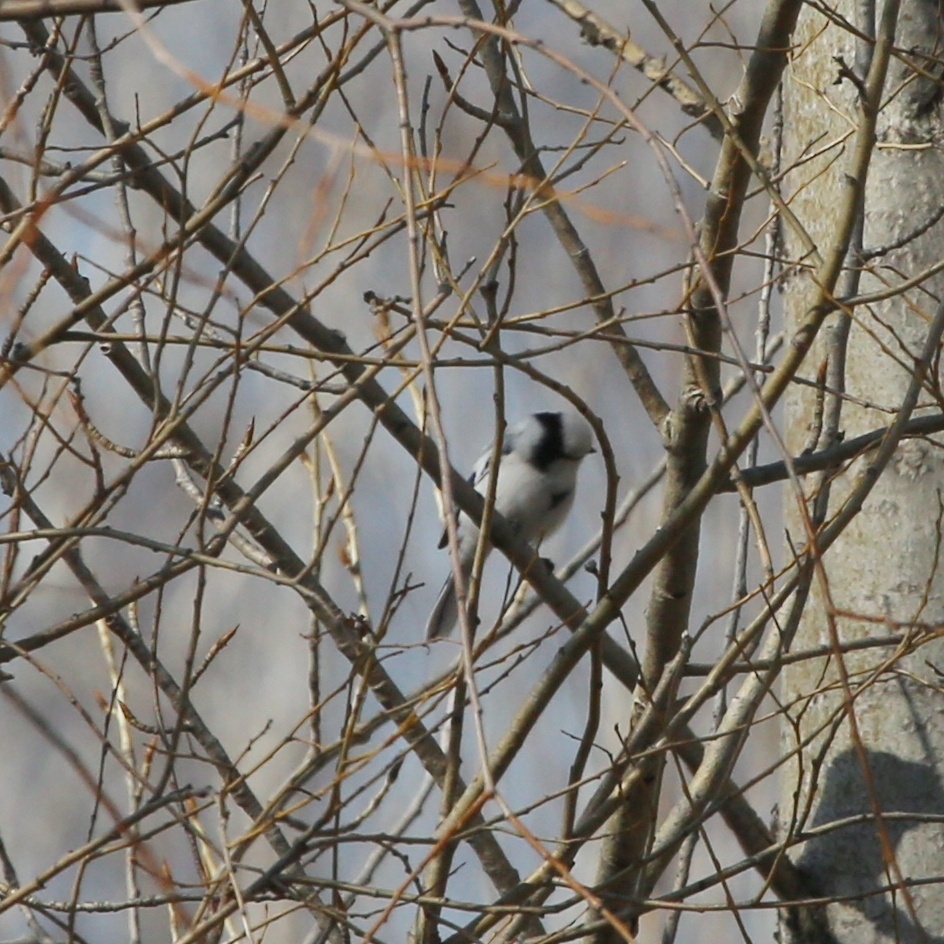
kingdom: Animalia
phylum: Chordata
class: Aves
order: Passeriformes
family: Paridae
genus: Cyanistes
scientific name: Cyanistes cyanus
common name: Azure tit
